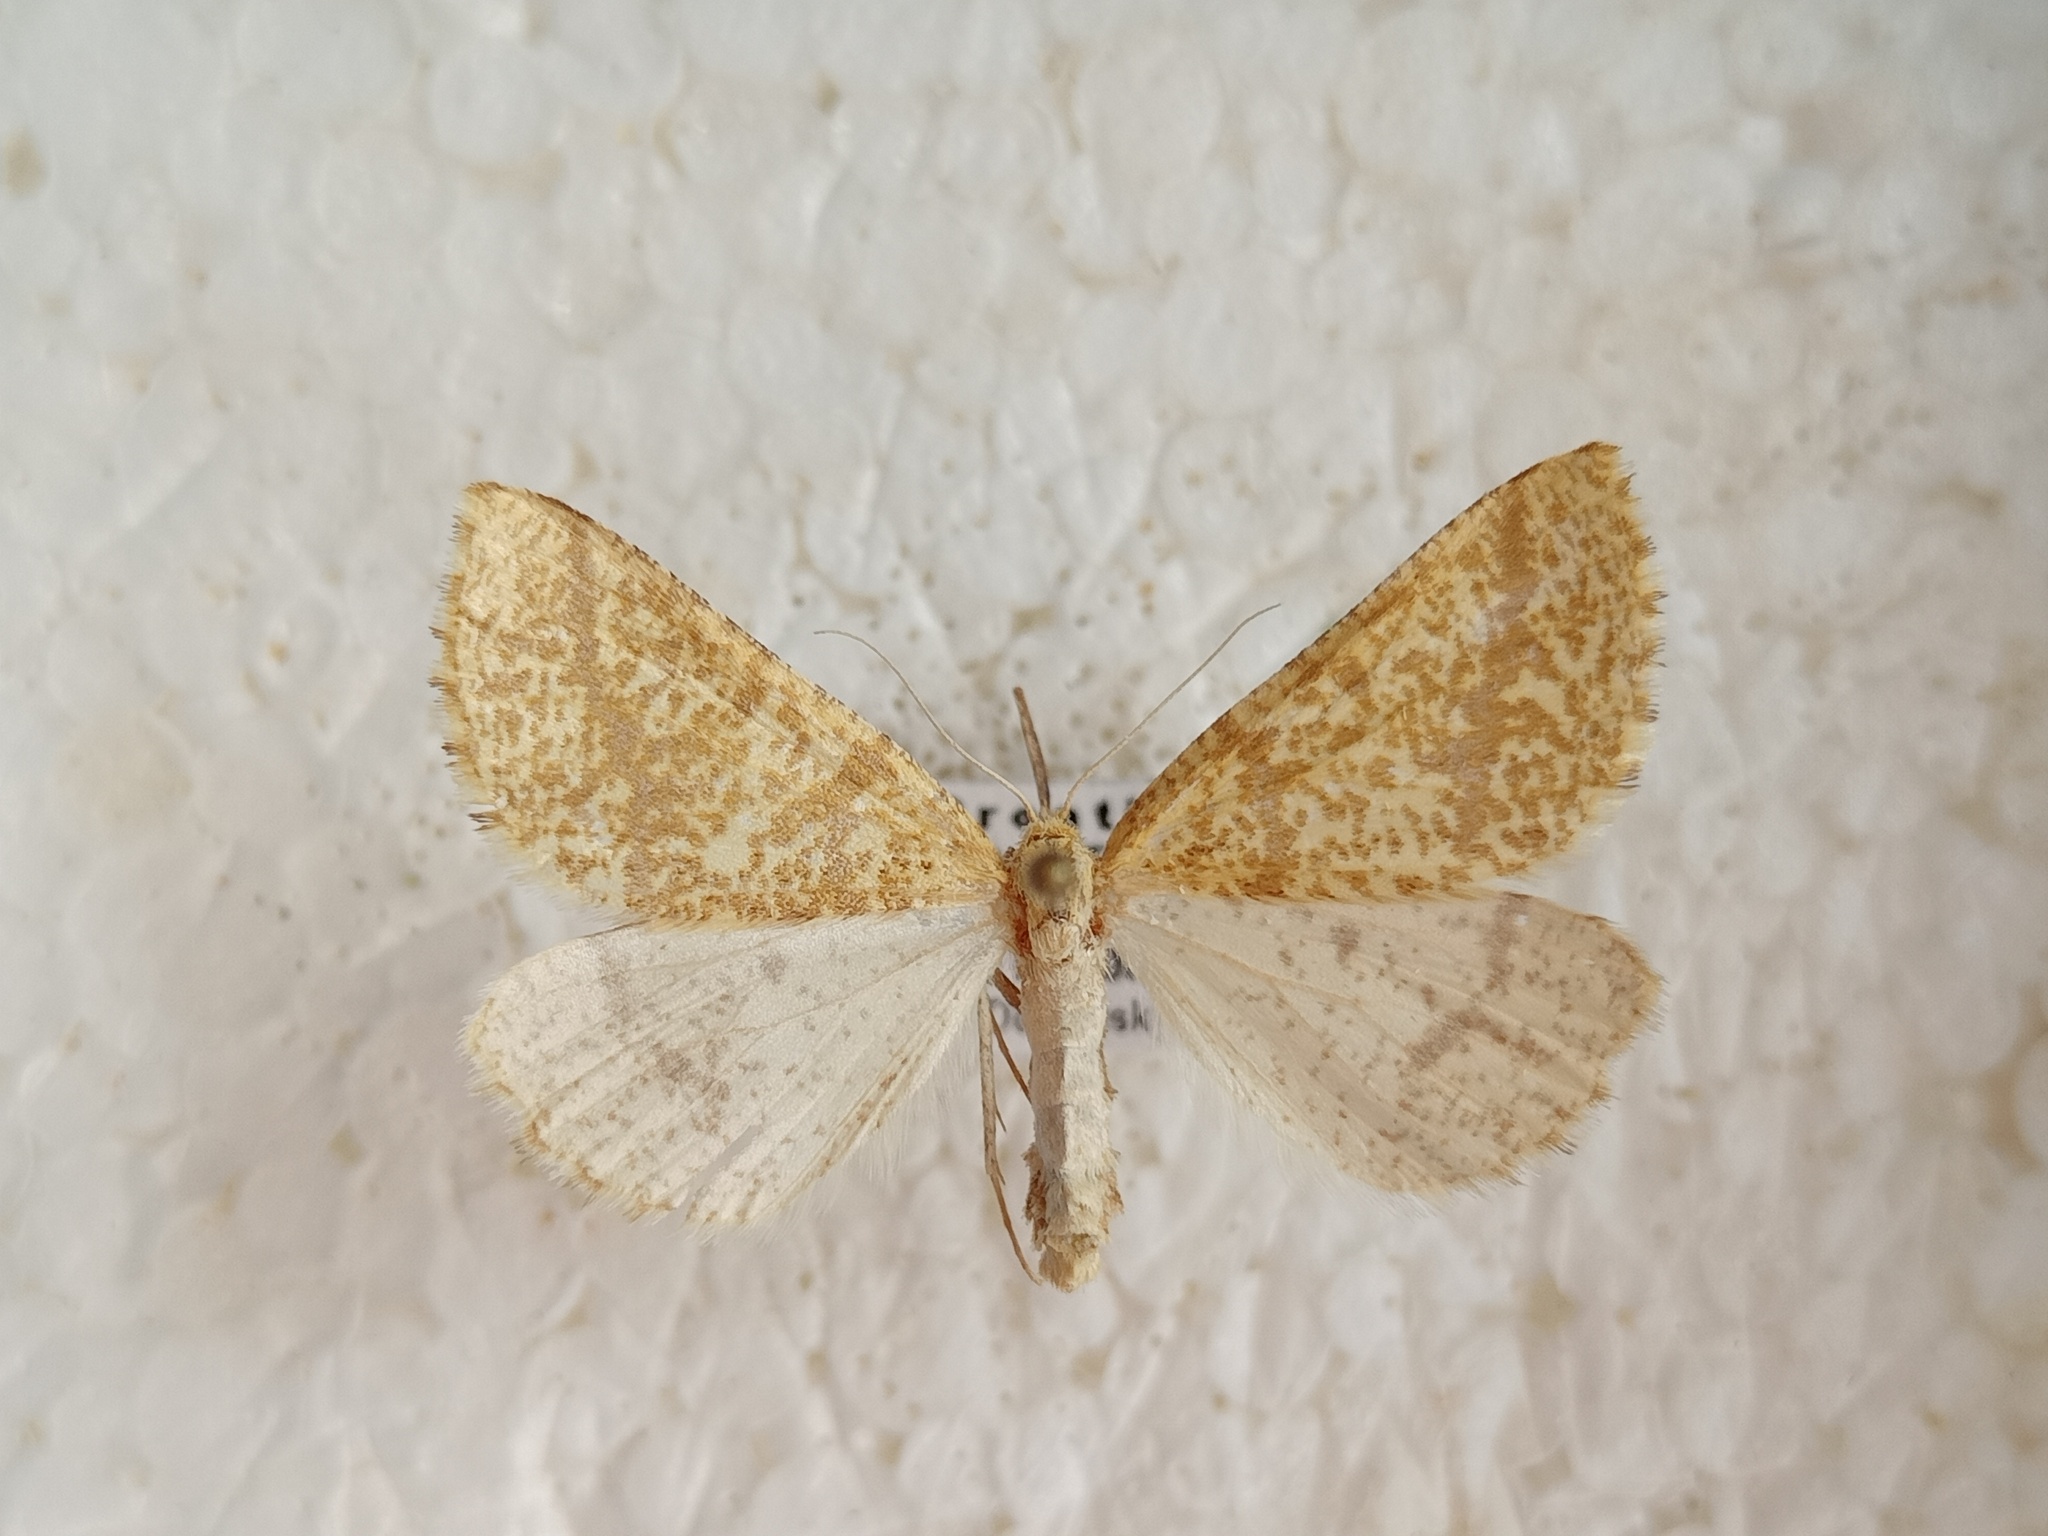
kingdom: Animalia
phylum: Arthropoda
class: Insecta
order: Lepidoptera
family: Geometridae
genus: Aspitates
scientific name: Aspitates ochrearia
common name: Yellow belle
